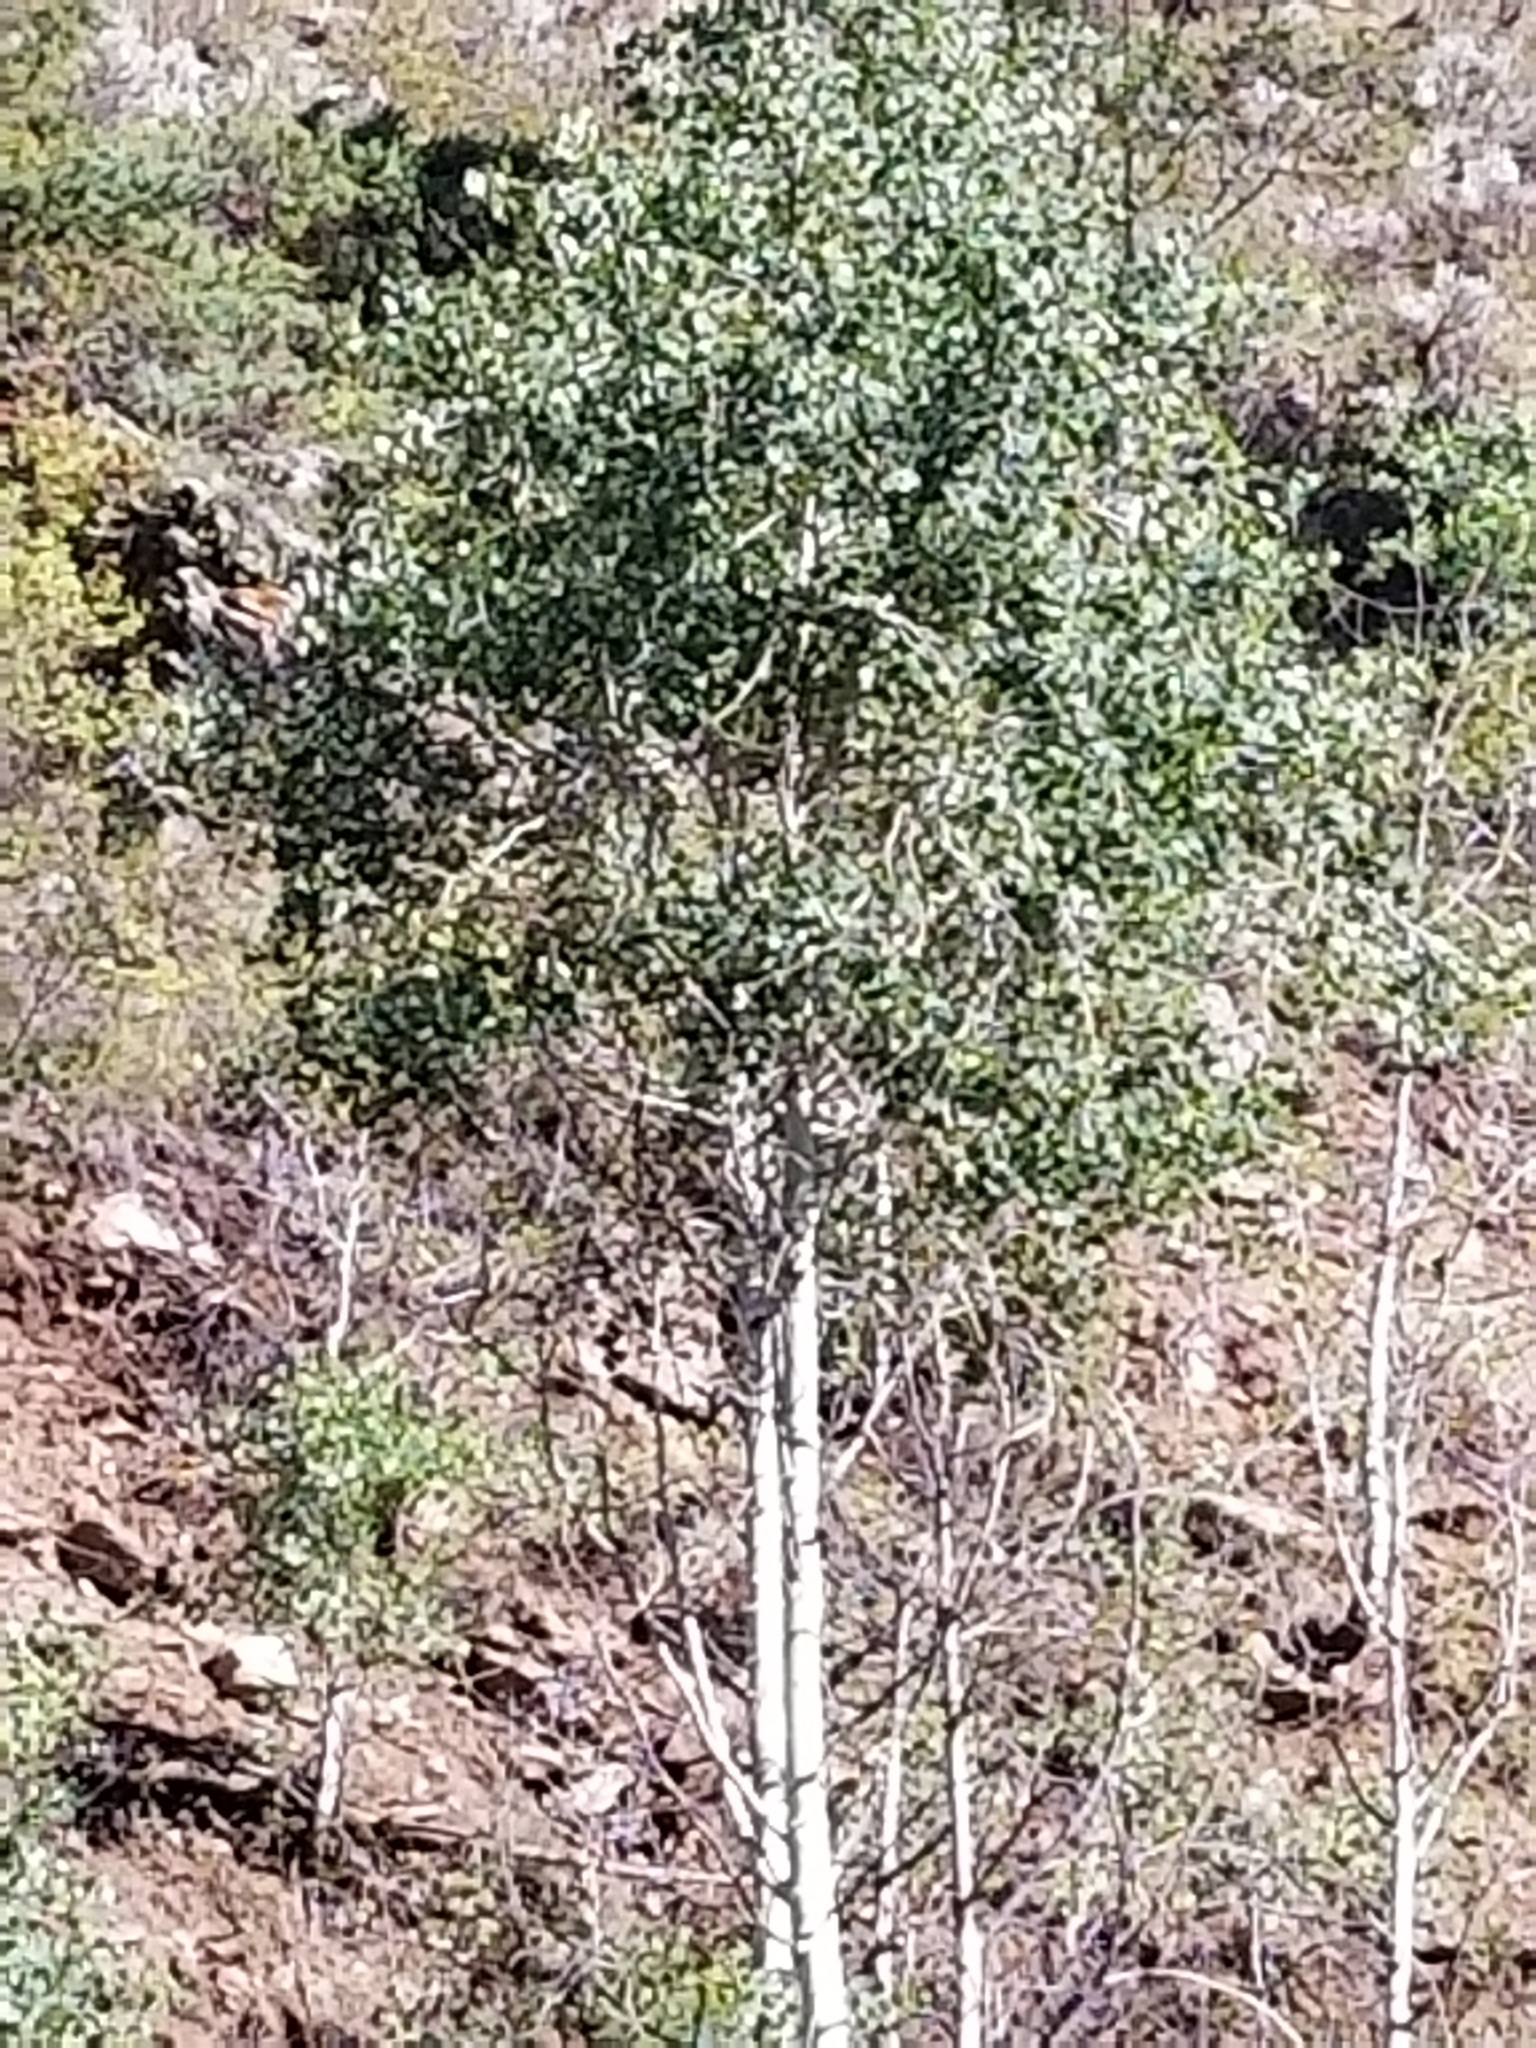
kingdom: Plantae
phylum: Tracheophyta
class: Magnoliopsida
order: Malpighiales
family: Salicaceae
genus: Populus
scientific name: Populus tremuloides
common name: Quaking aspen
